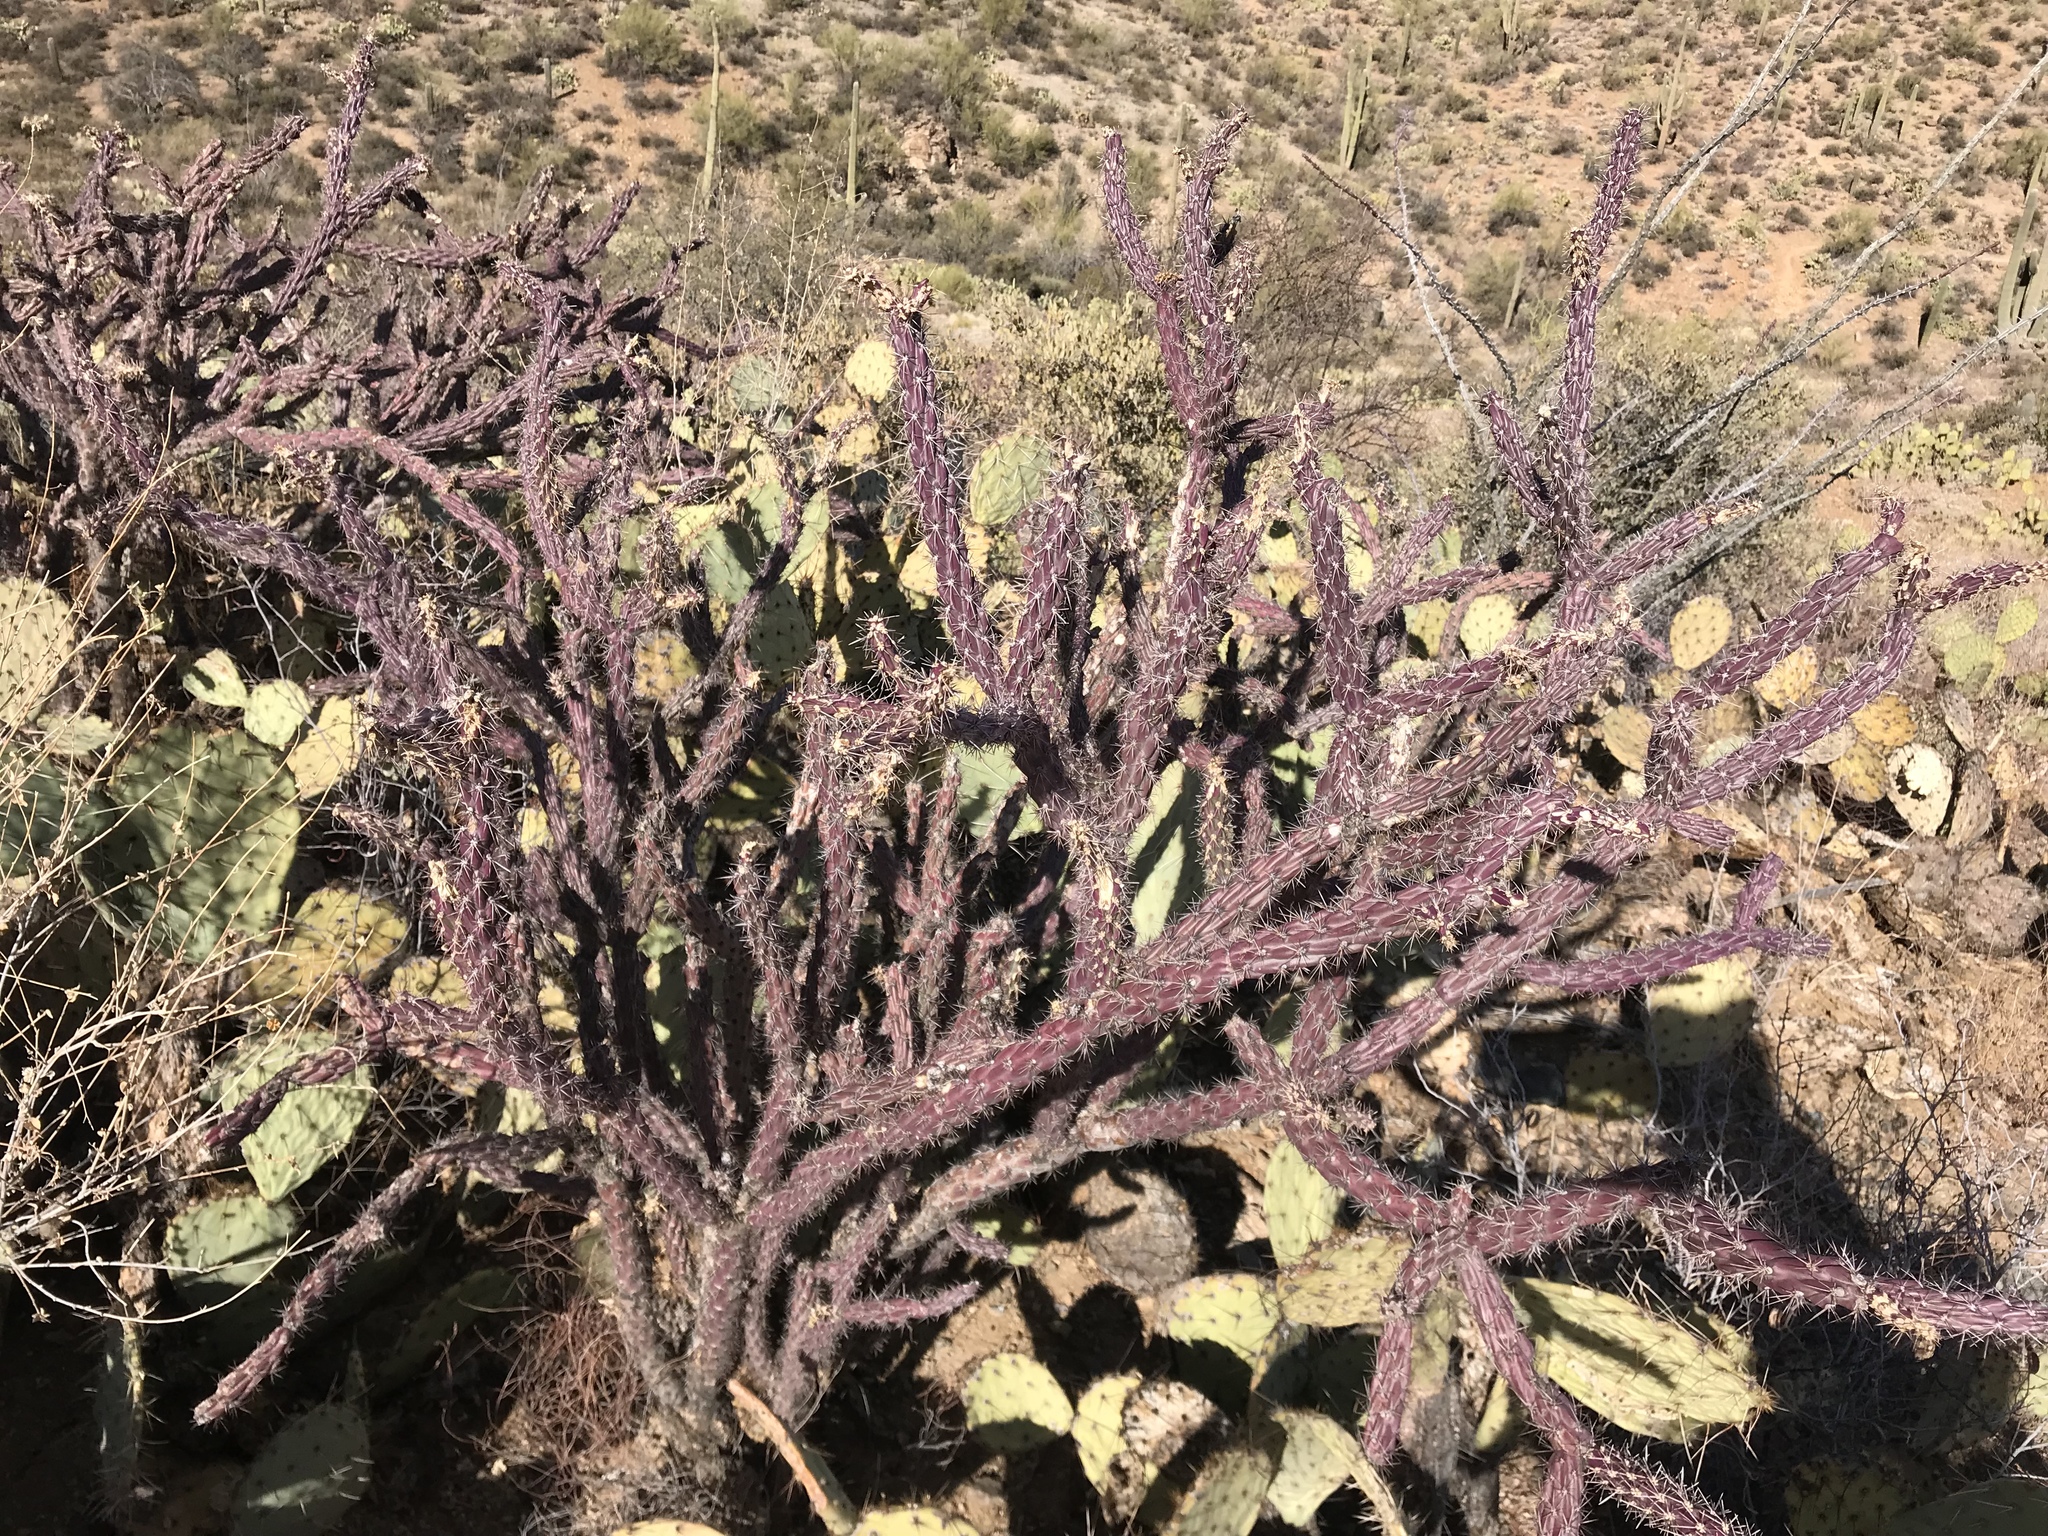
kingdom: Plantae
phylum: Tracheophyta
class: Magnoliopsida
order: Caryophyllales
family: Cactaceae
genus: Cylindropuntia
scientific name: Cylindropuntia thurberi
